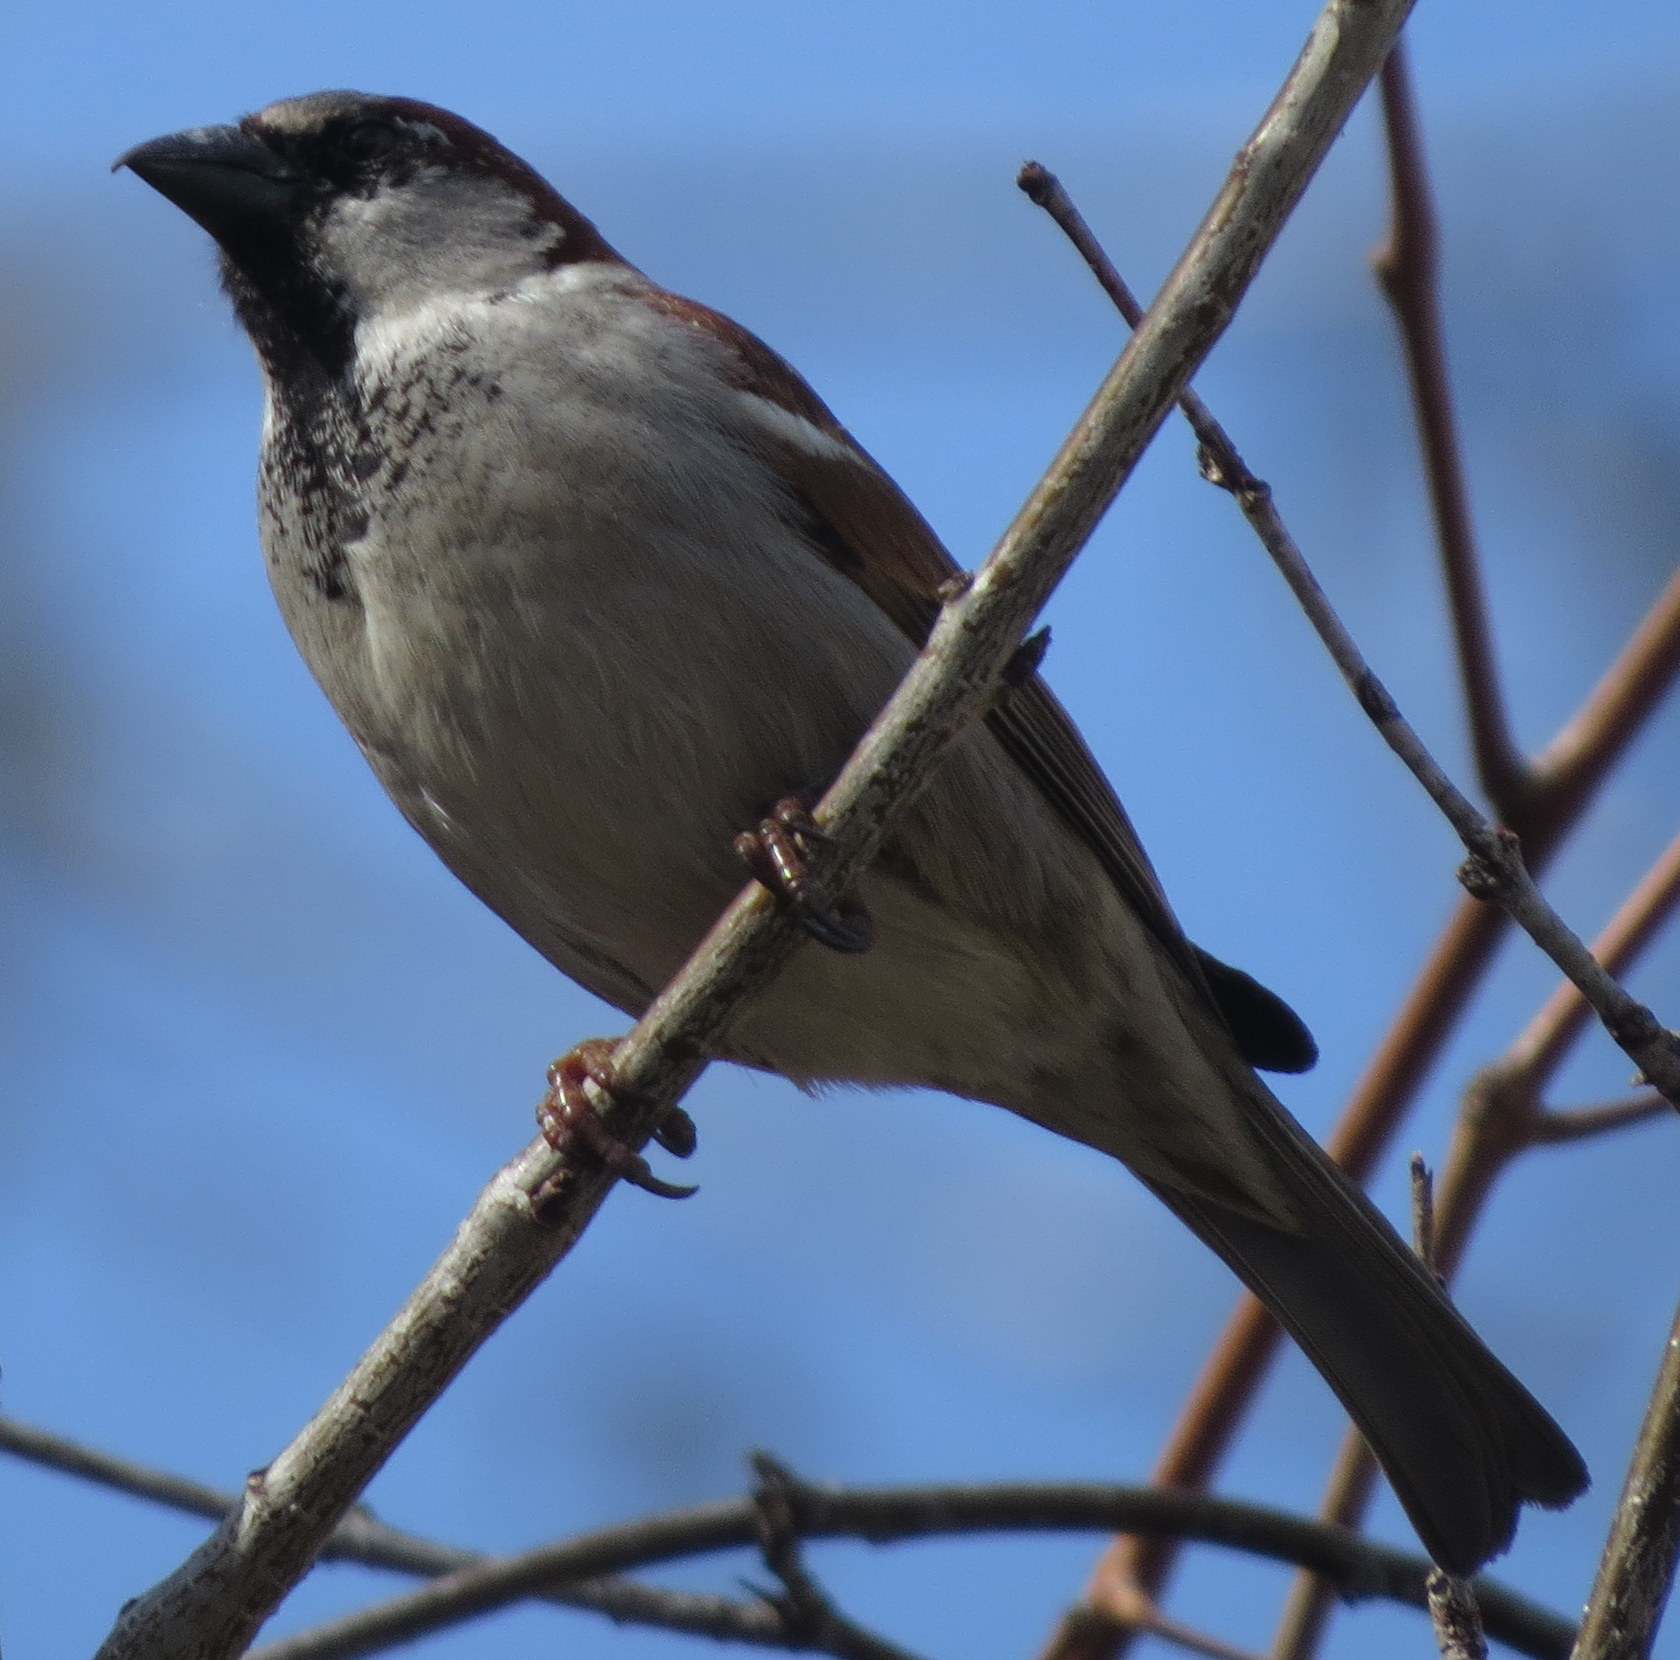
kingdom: Animalia
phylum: Chordata
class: Aves
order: Passeriformes
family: Passeridae
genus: Passer
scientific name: Passer domesticus
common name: House sparrow
